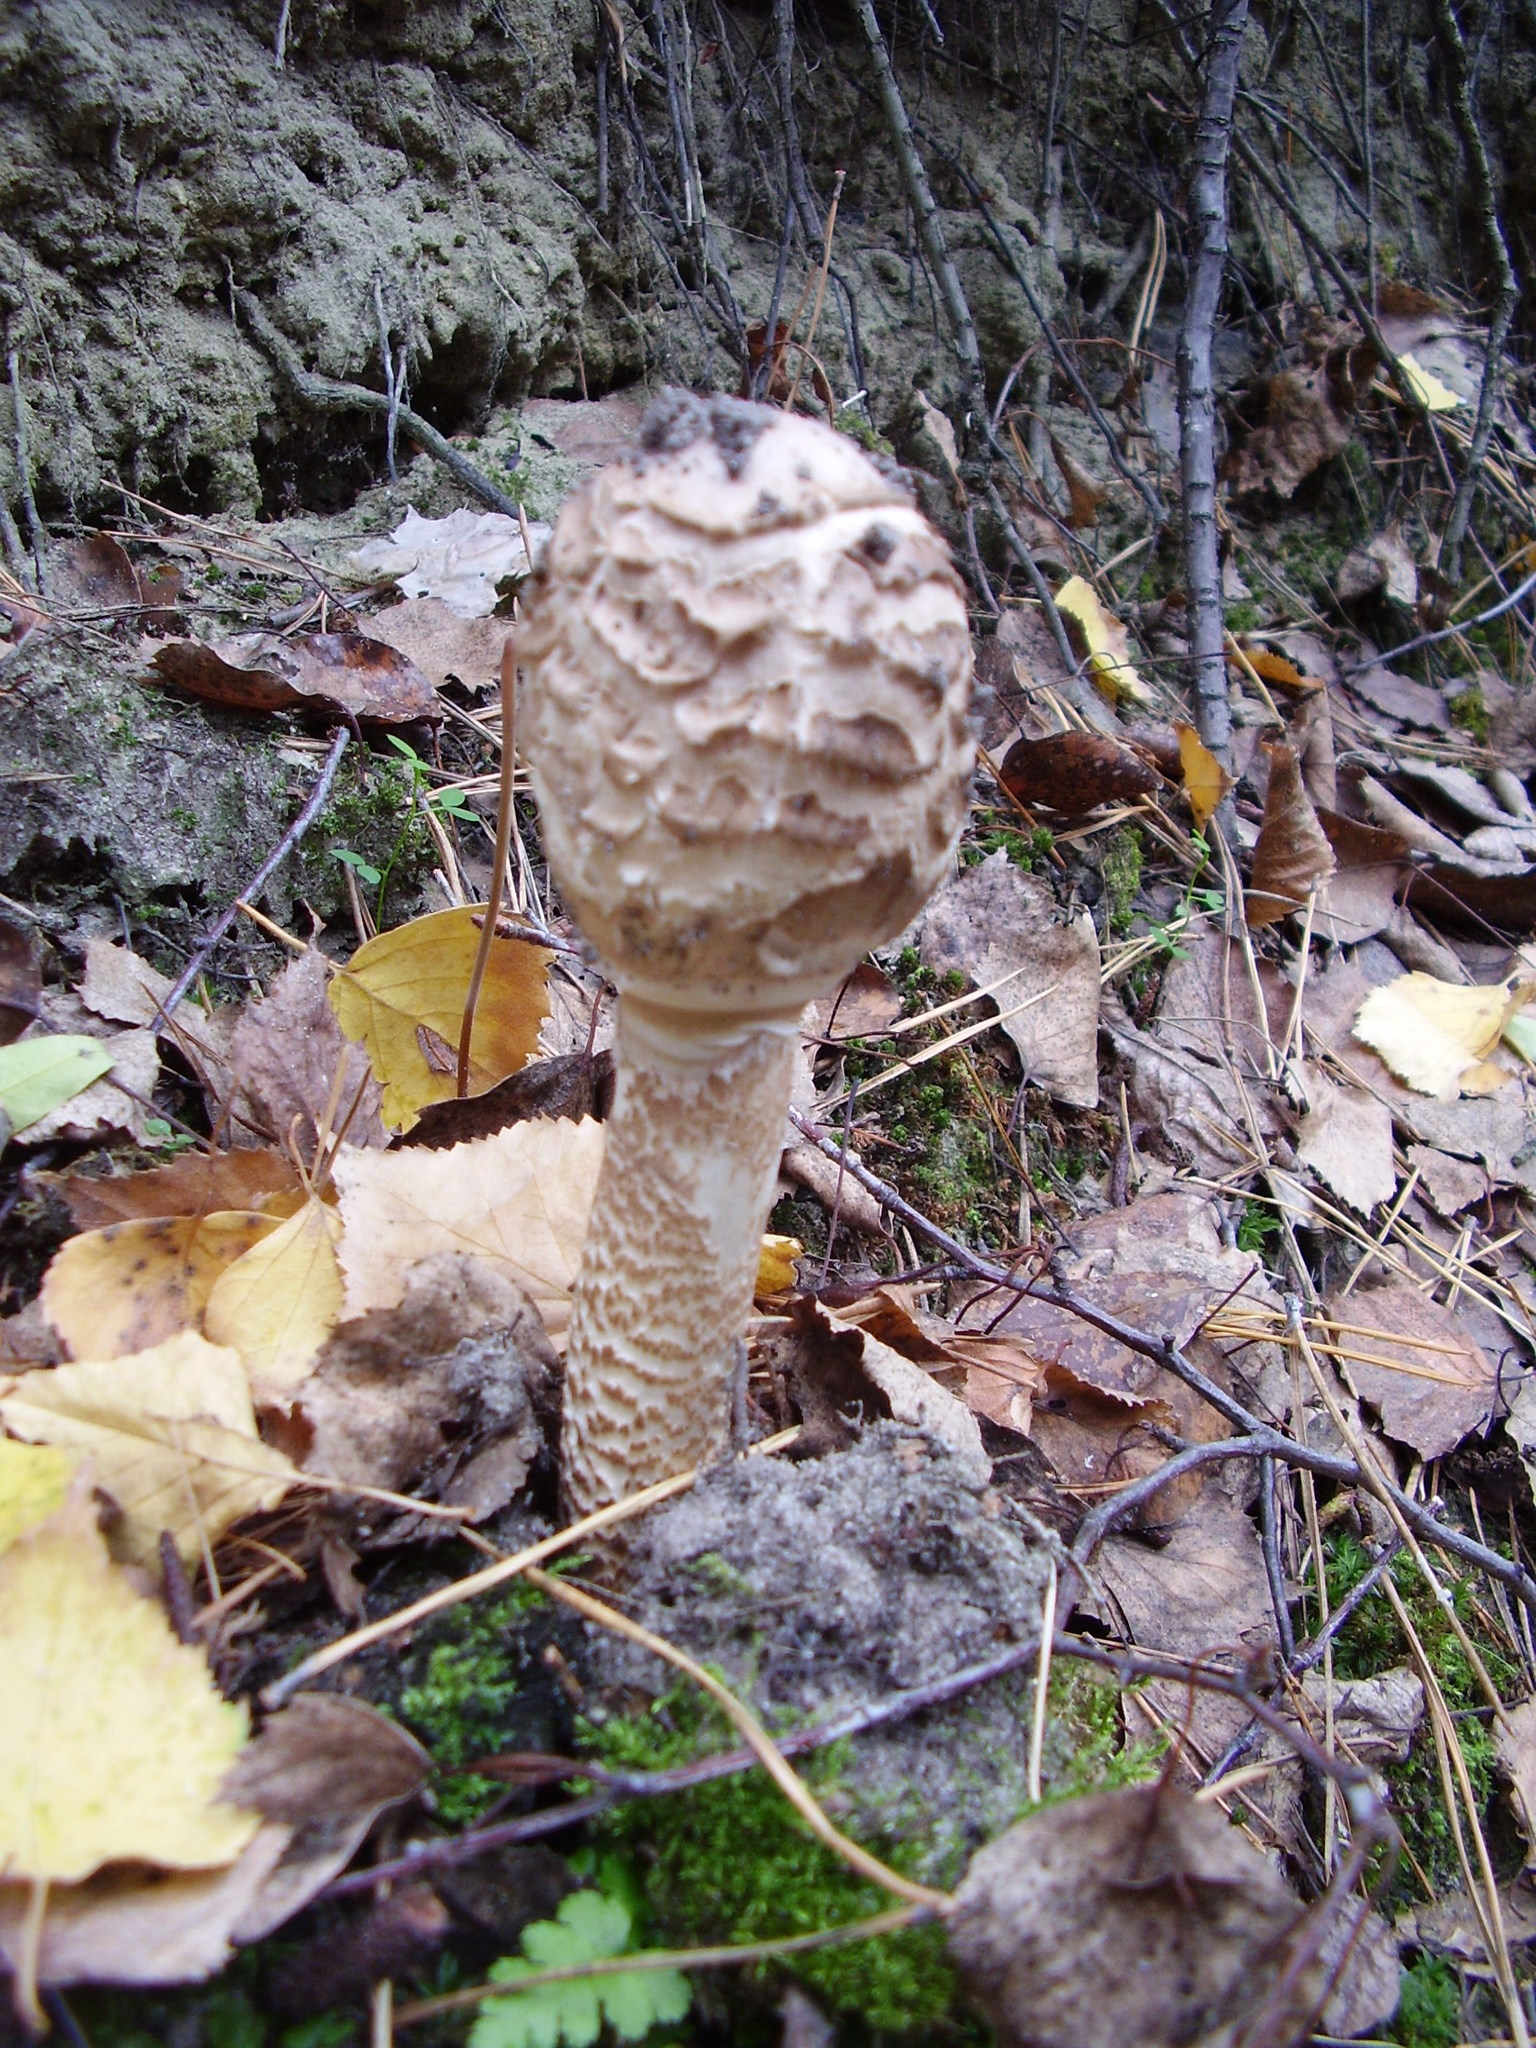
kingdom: Fungi
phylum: Basidiomycota
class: Agaricomycetes
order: Agaricales
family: Agaricaceae
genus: Macrolepiota
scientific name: Macrolepiota procera
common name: Parasol
